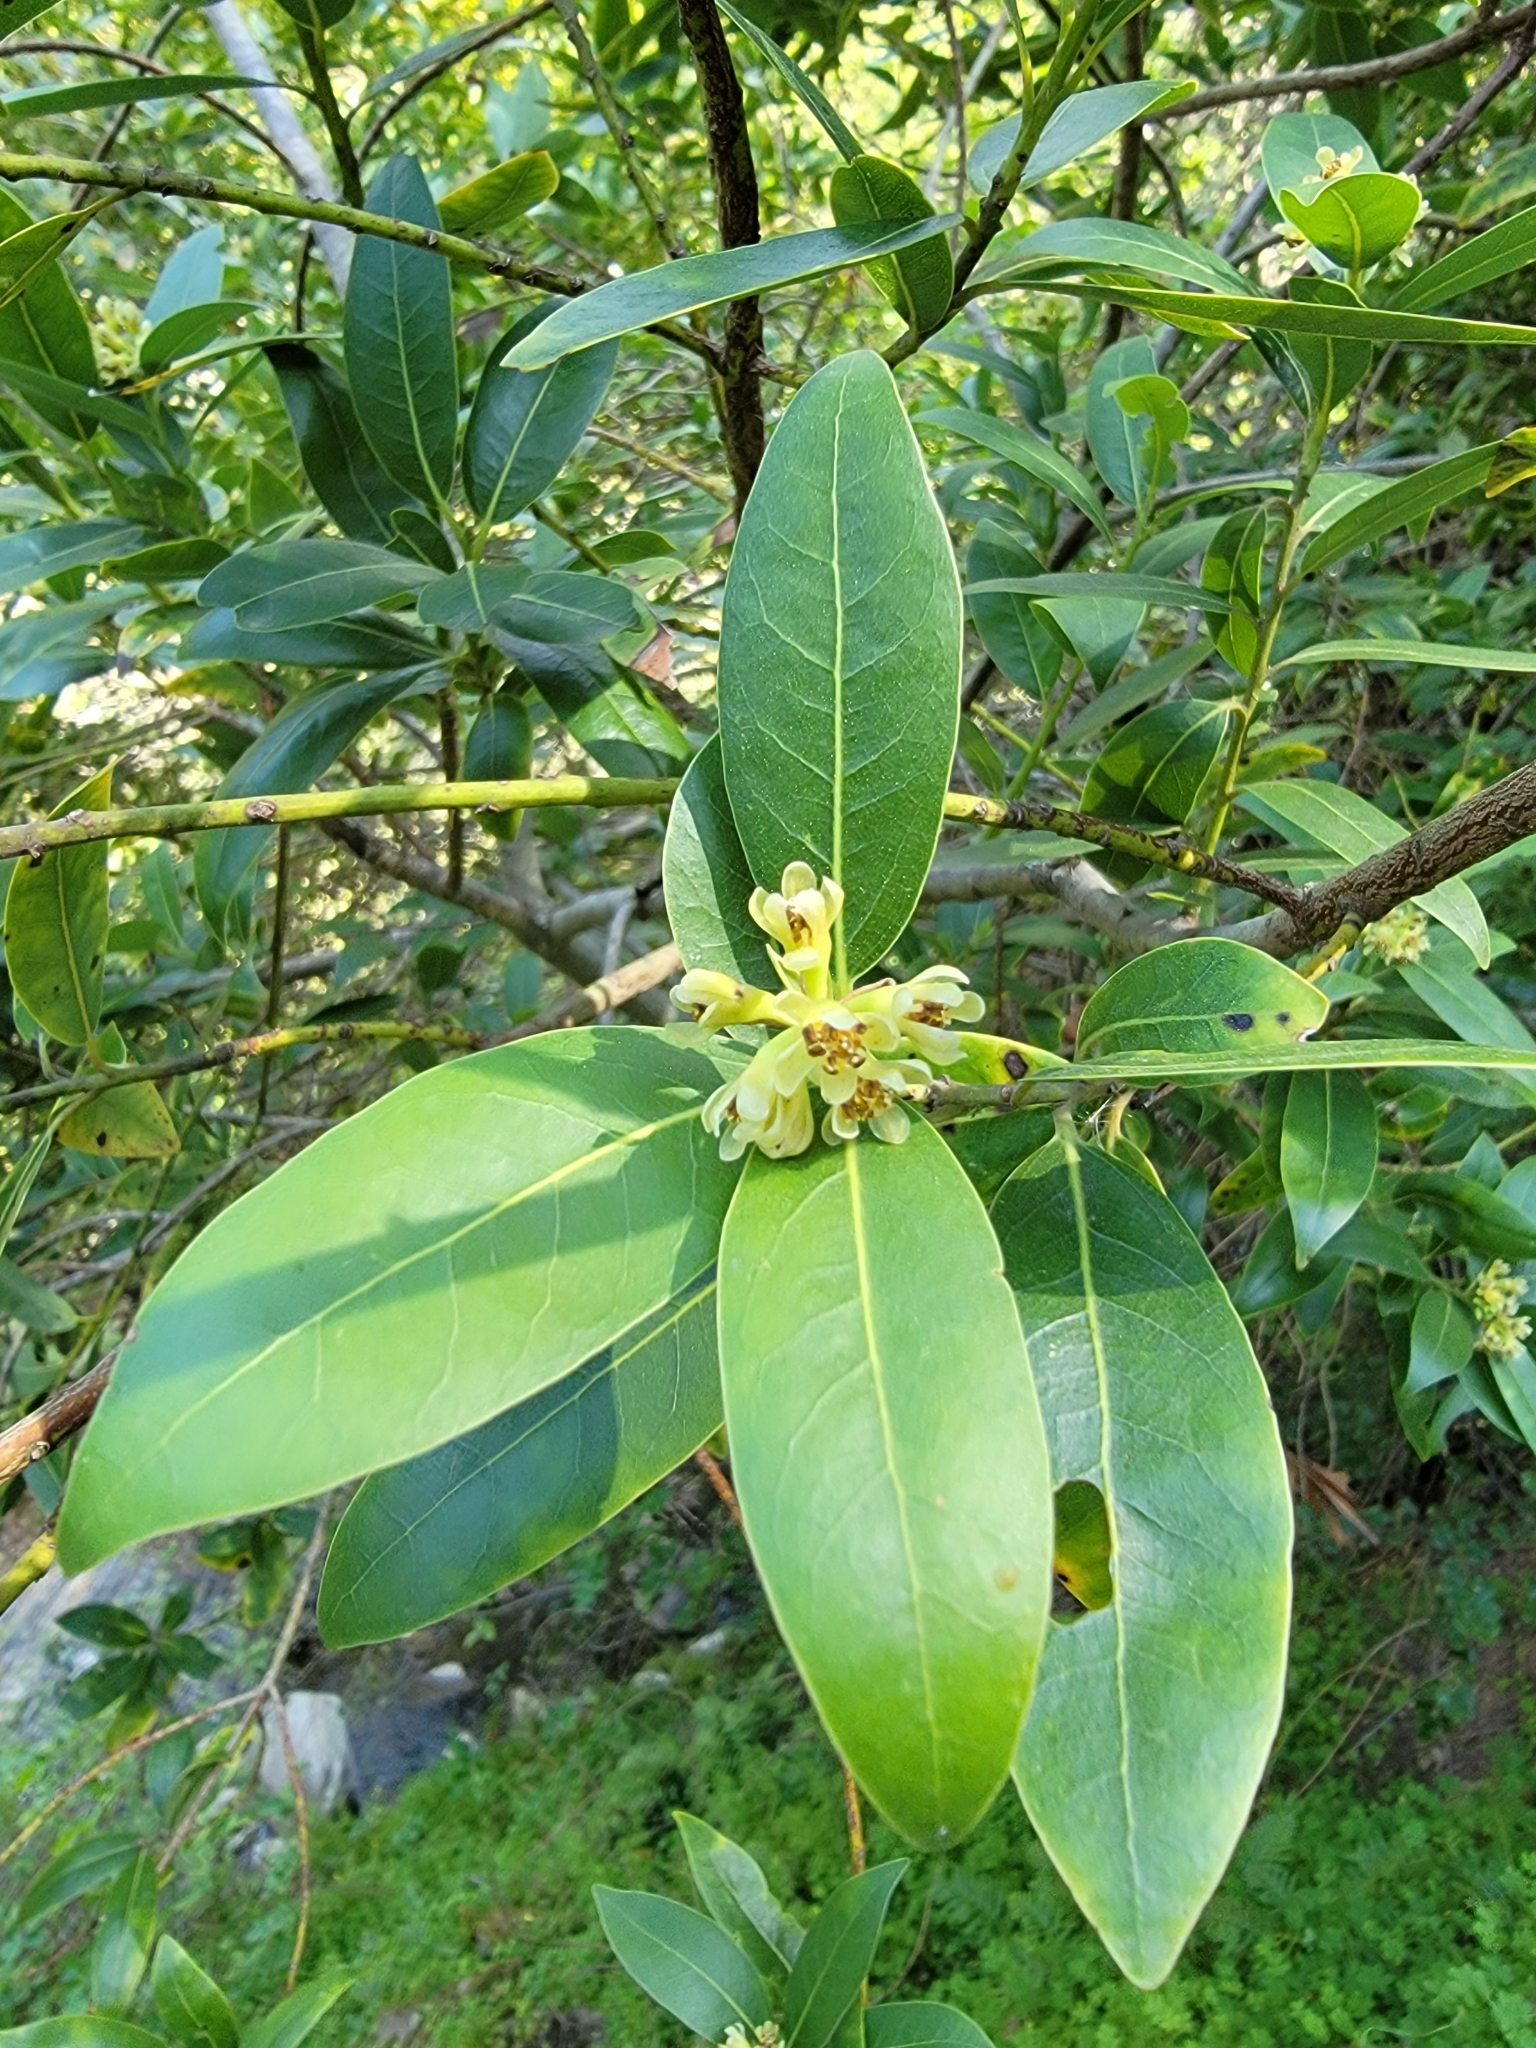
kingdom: Plantae
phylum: Tracheophyta
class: Magnoliopsida
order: Laurales
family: Lauraceae
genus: Umbellularia
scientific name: Umbellularia californica
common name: California bay
